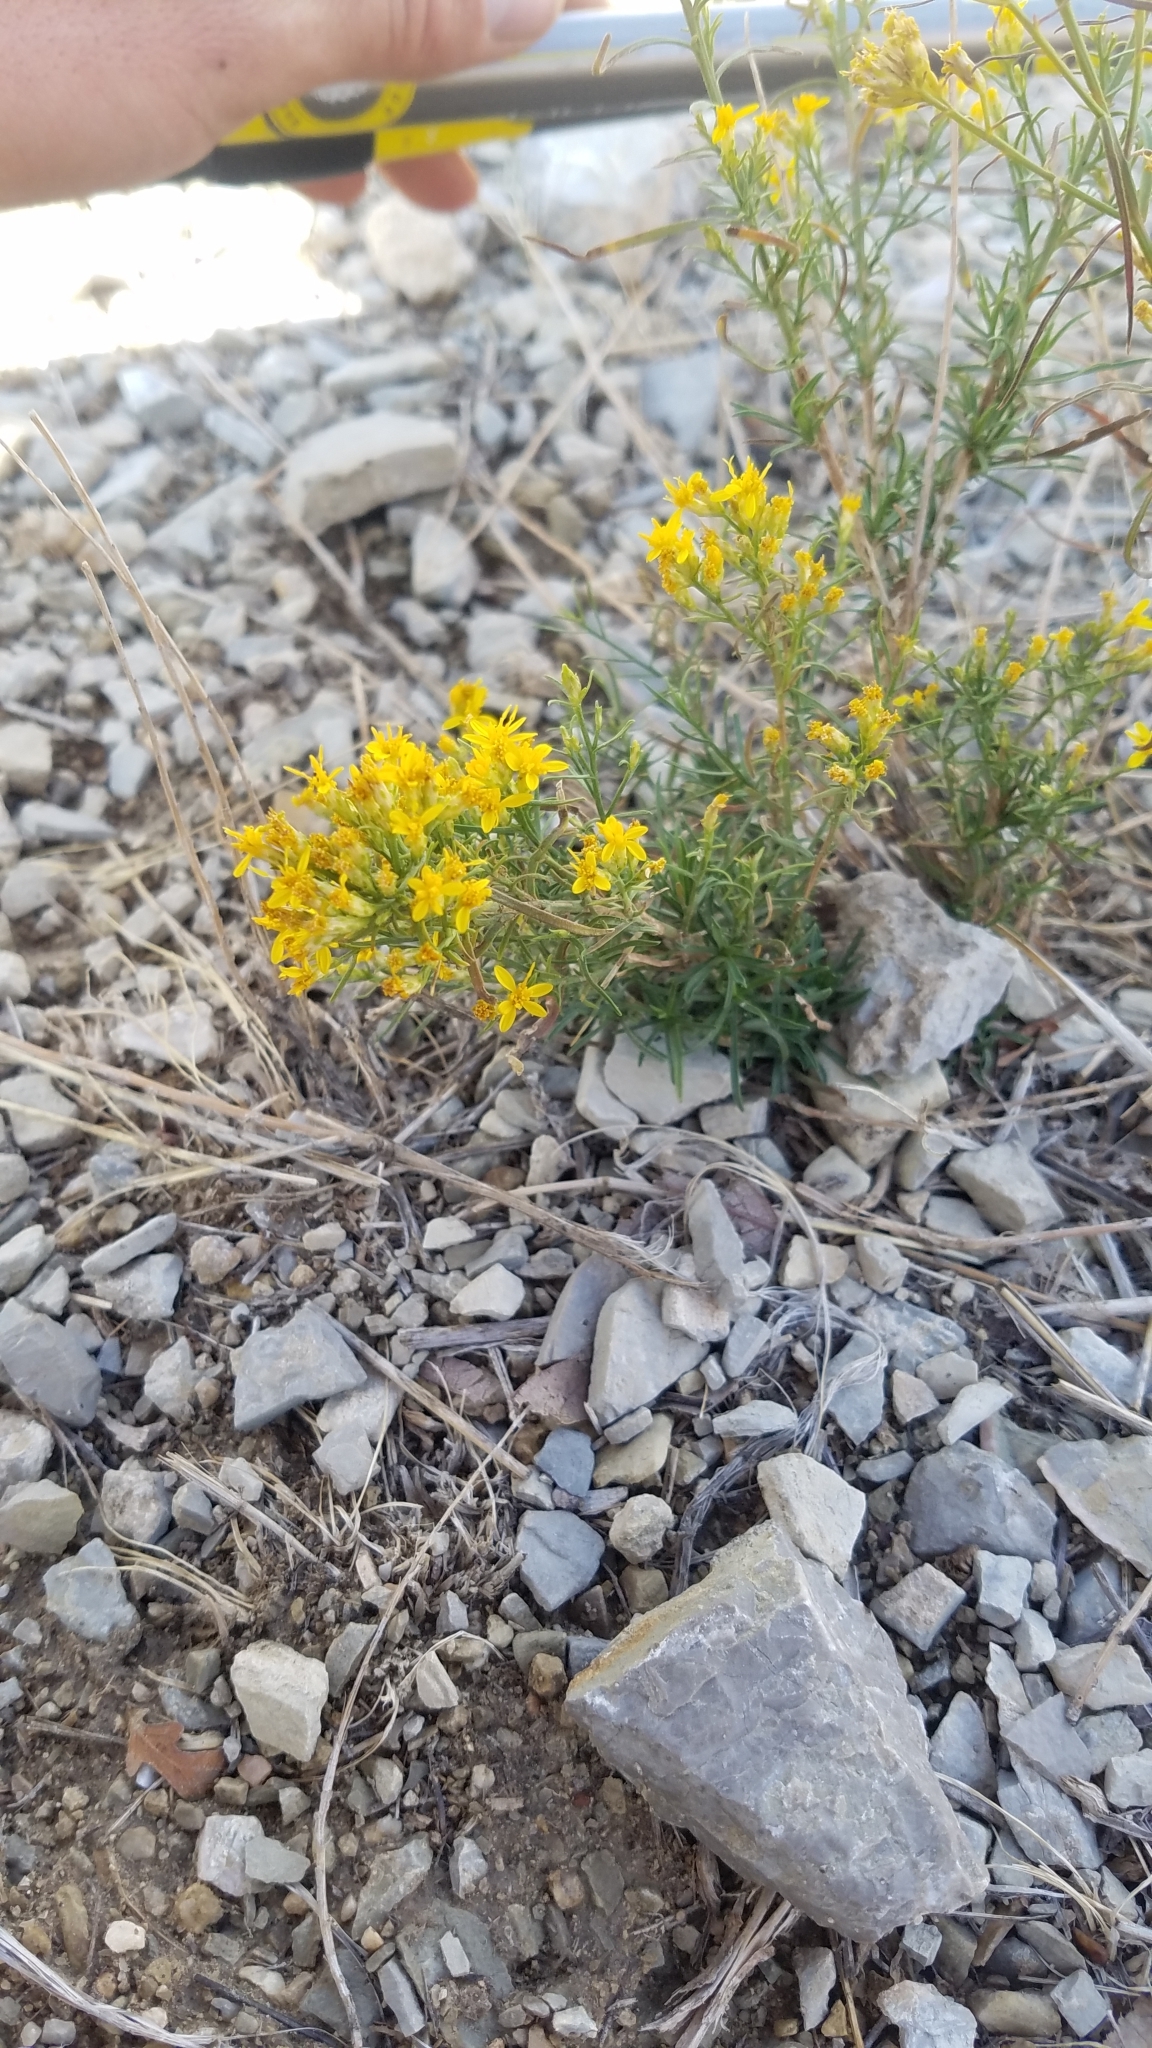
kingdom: Plantae
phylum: Tracheophyta
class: Magnoliopsida
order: Asterales
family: Asteraceae
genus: Gutierrezia
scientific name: Gutierrezia sarothrae
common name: Broom snakeweed
